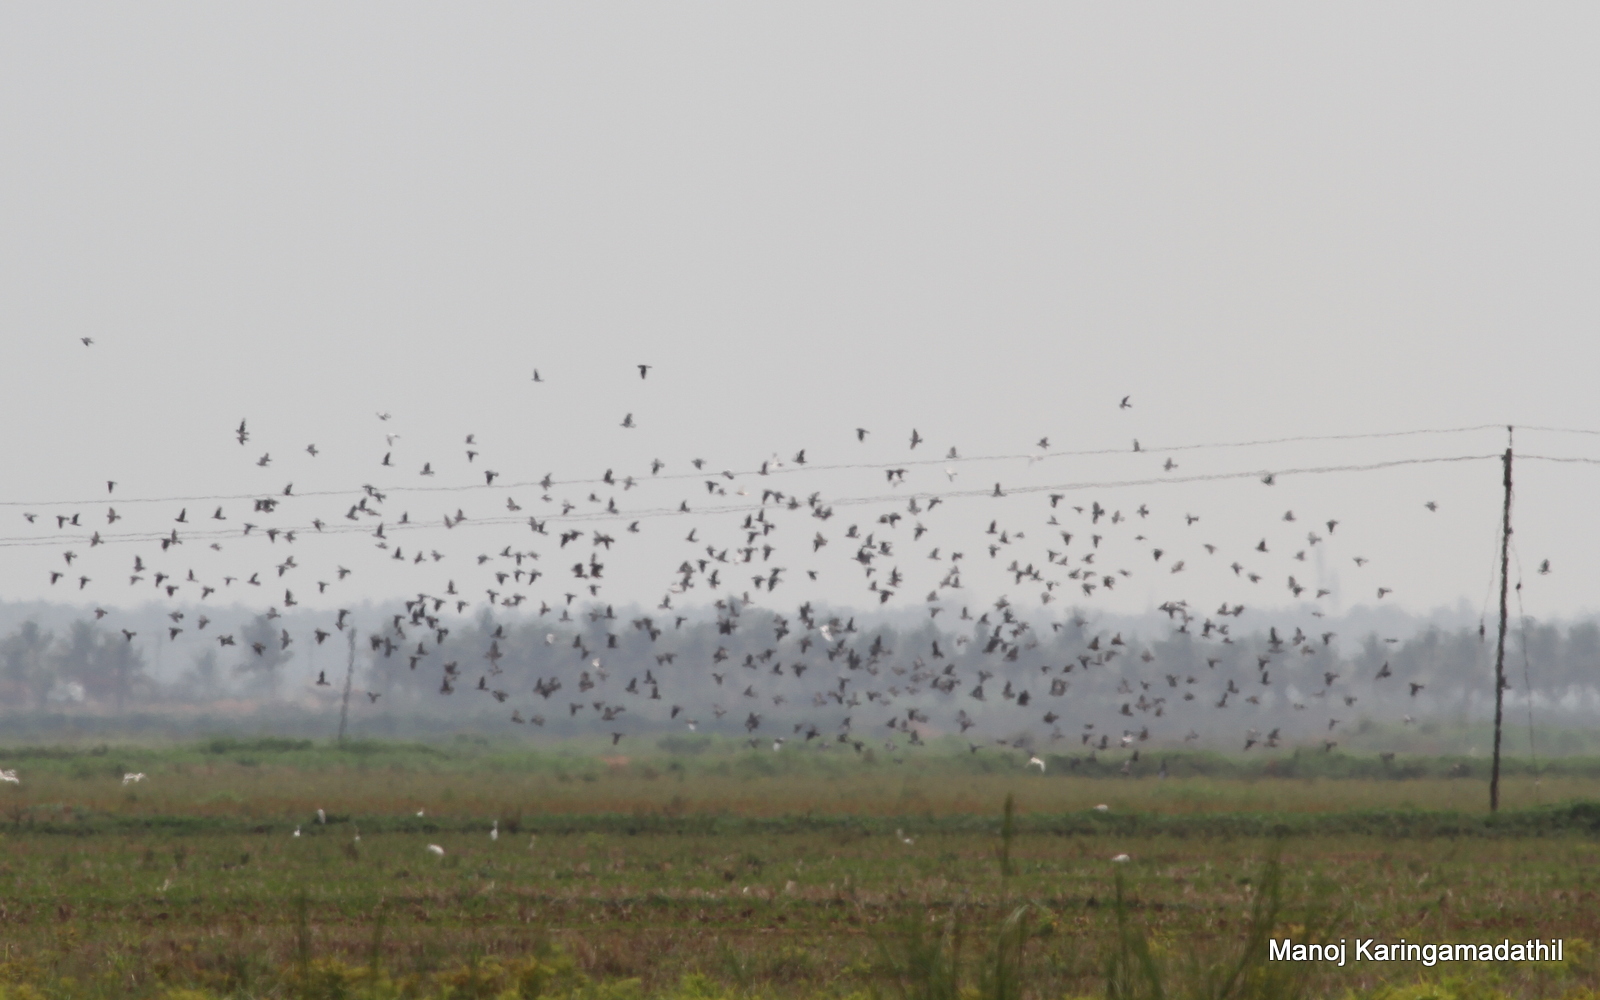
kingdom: Animalia
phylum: Chordata
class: Aves
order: Columbiformes
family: Columbidae
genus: Columba
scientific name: Columba livia
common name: Rock pigeon
